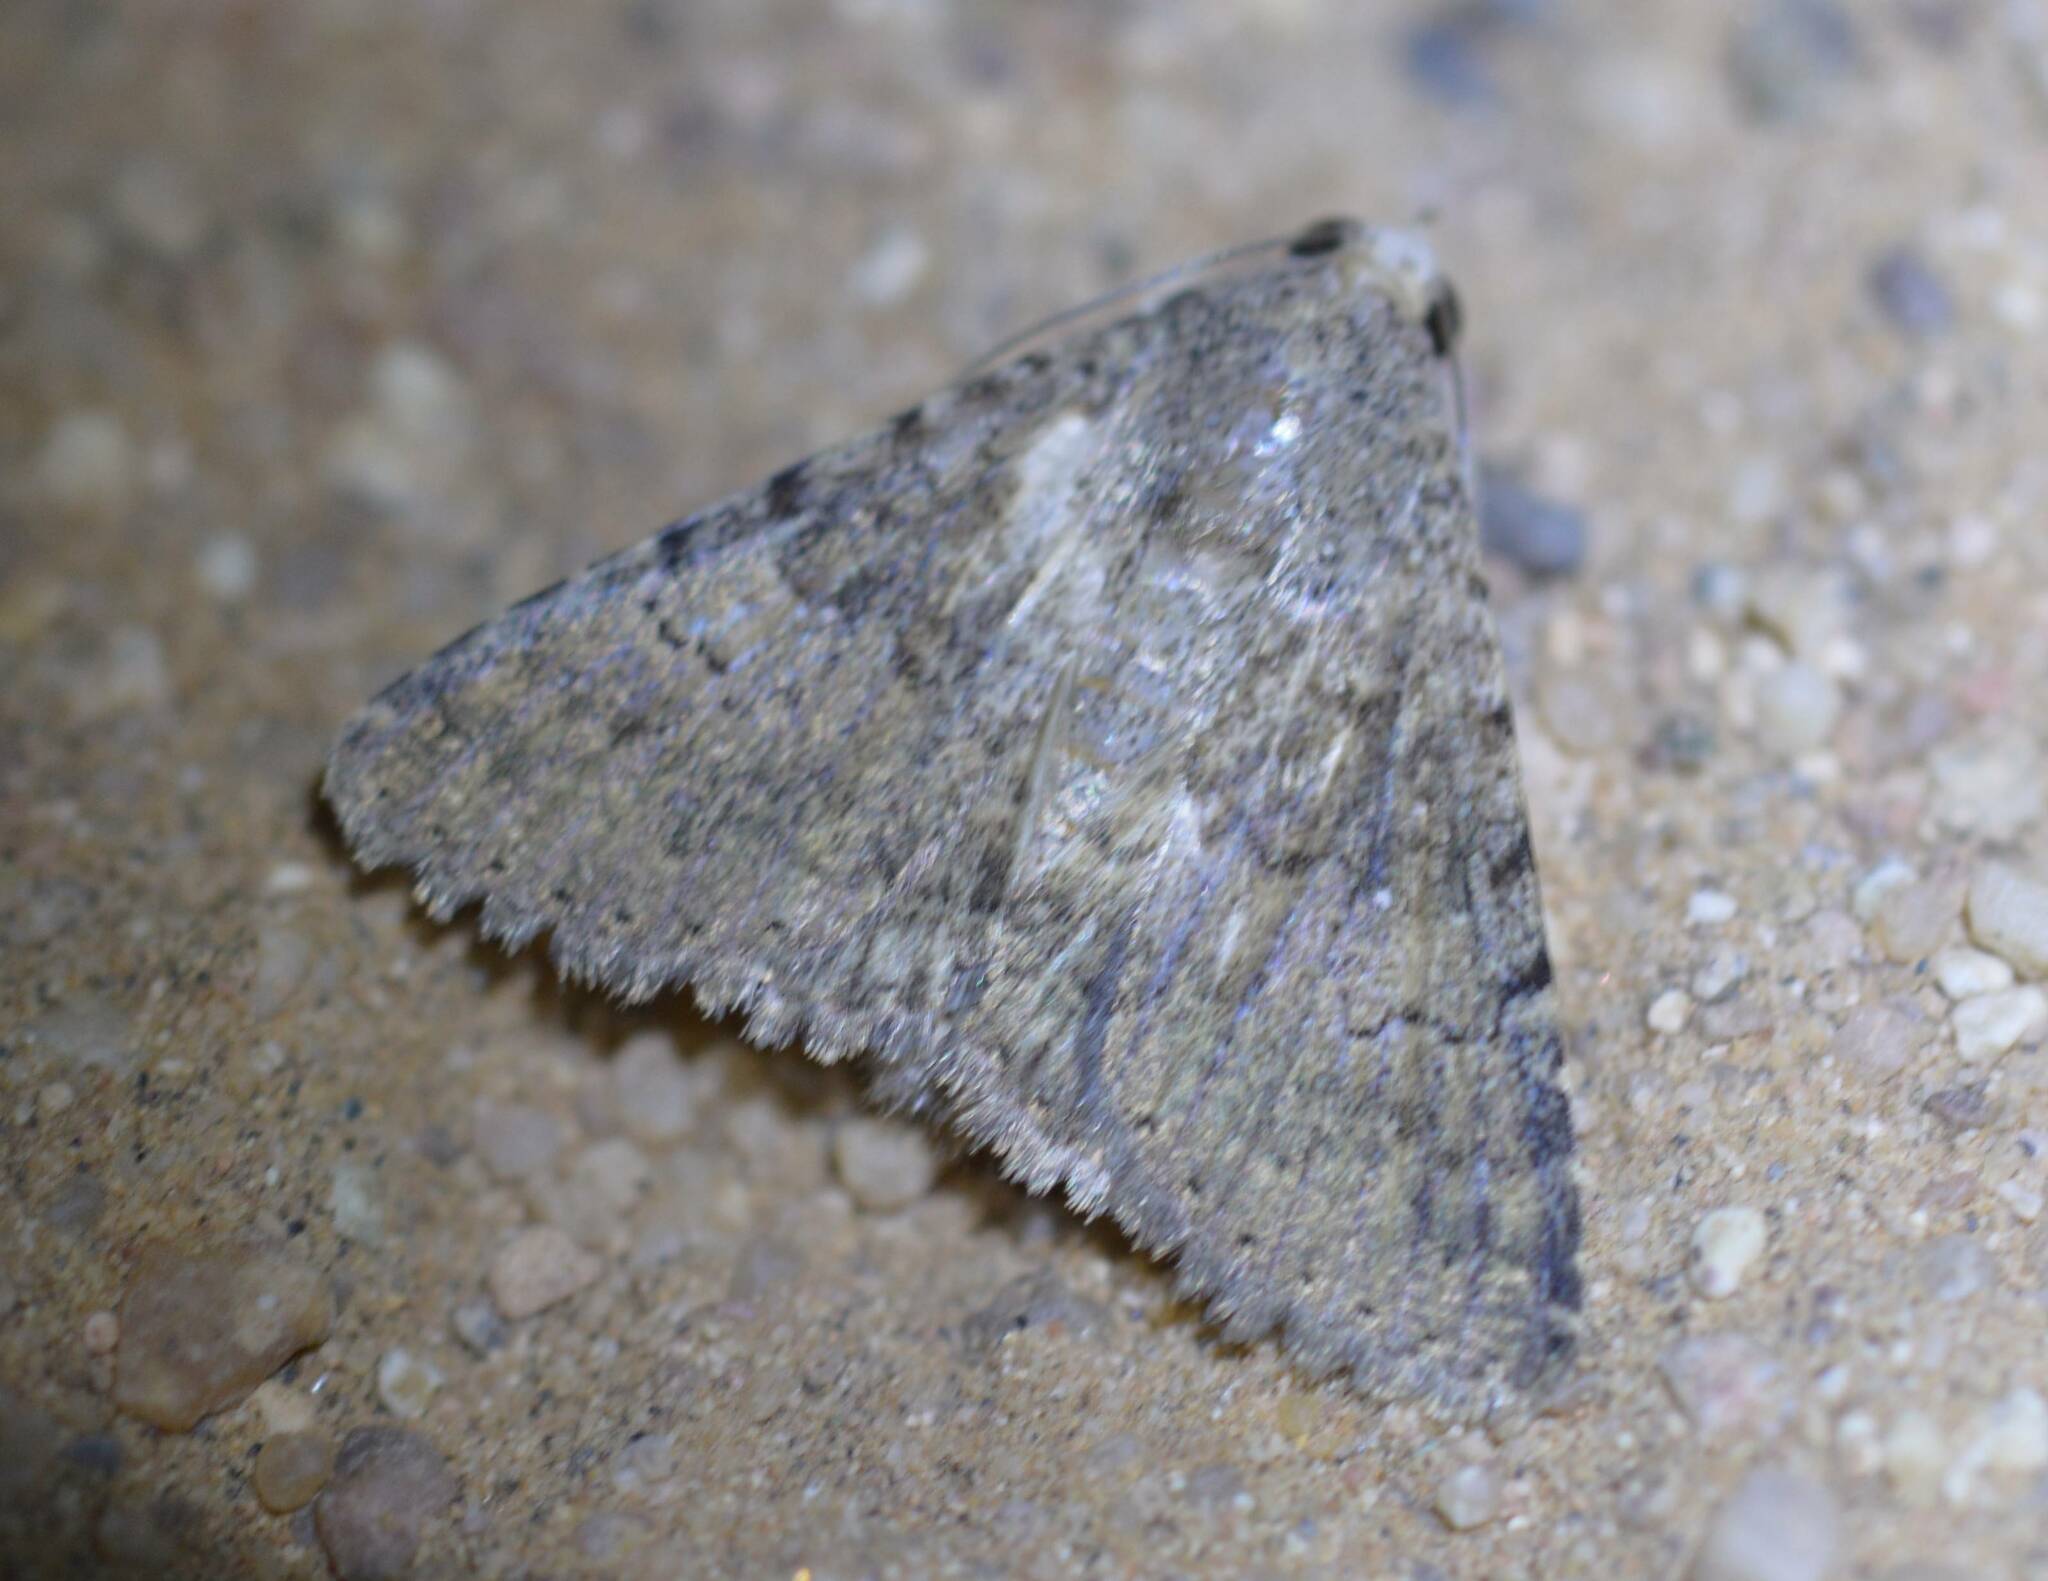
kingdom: Animalia
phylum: Arthropoda
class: Insecta
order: Lepidoptera
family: Erebidae
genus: Pandesma
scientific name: Pandesma robusta
